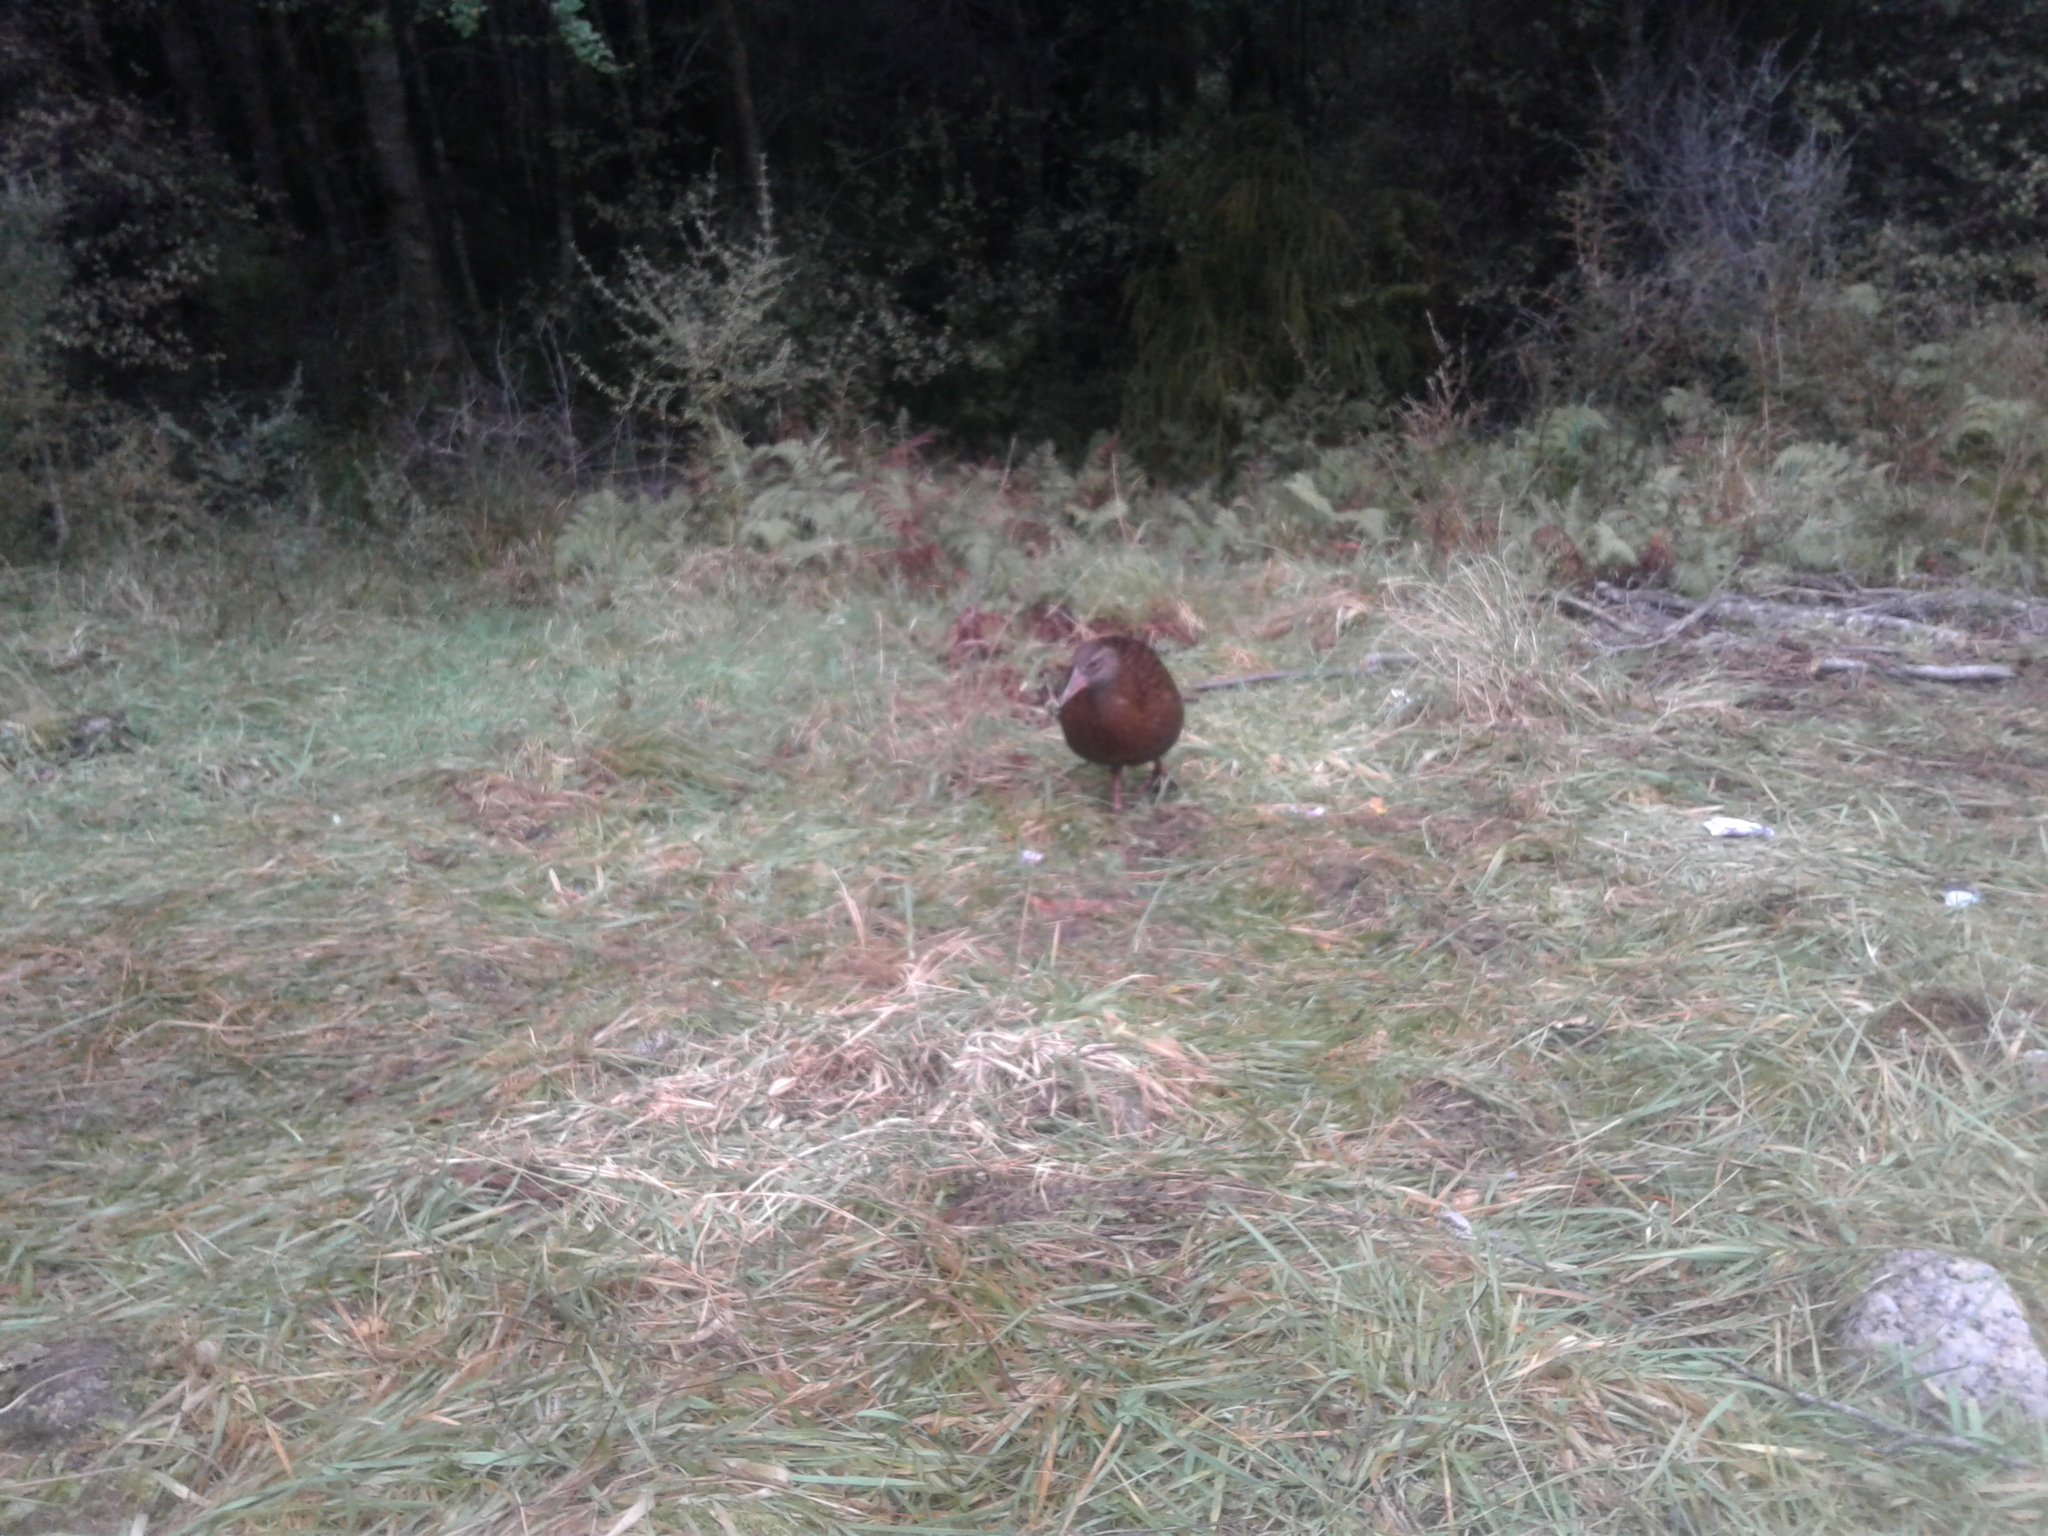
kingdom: Animalia
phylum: Chordata
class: Aves
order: Gruiformes
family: Rallidae
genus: Gallirallus
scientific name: Gallirallus australis
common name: Weka
